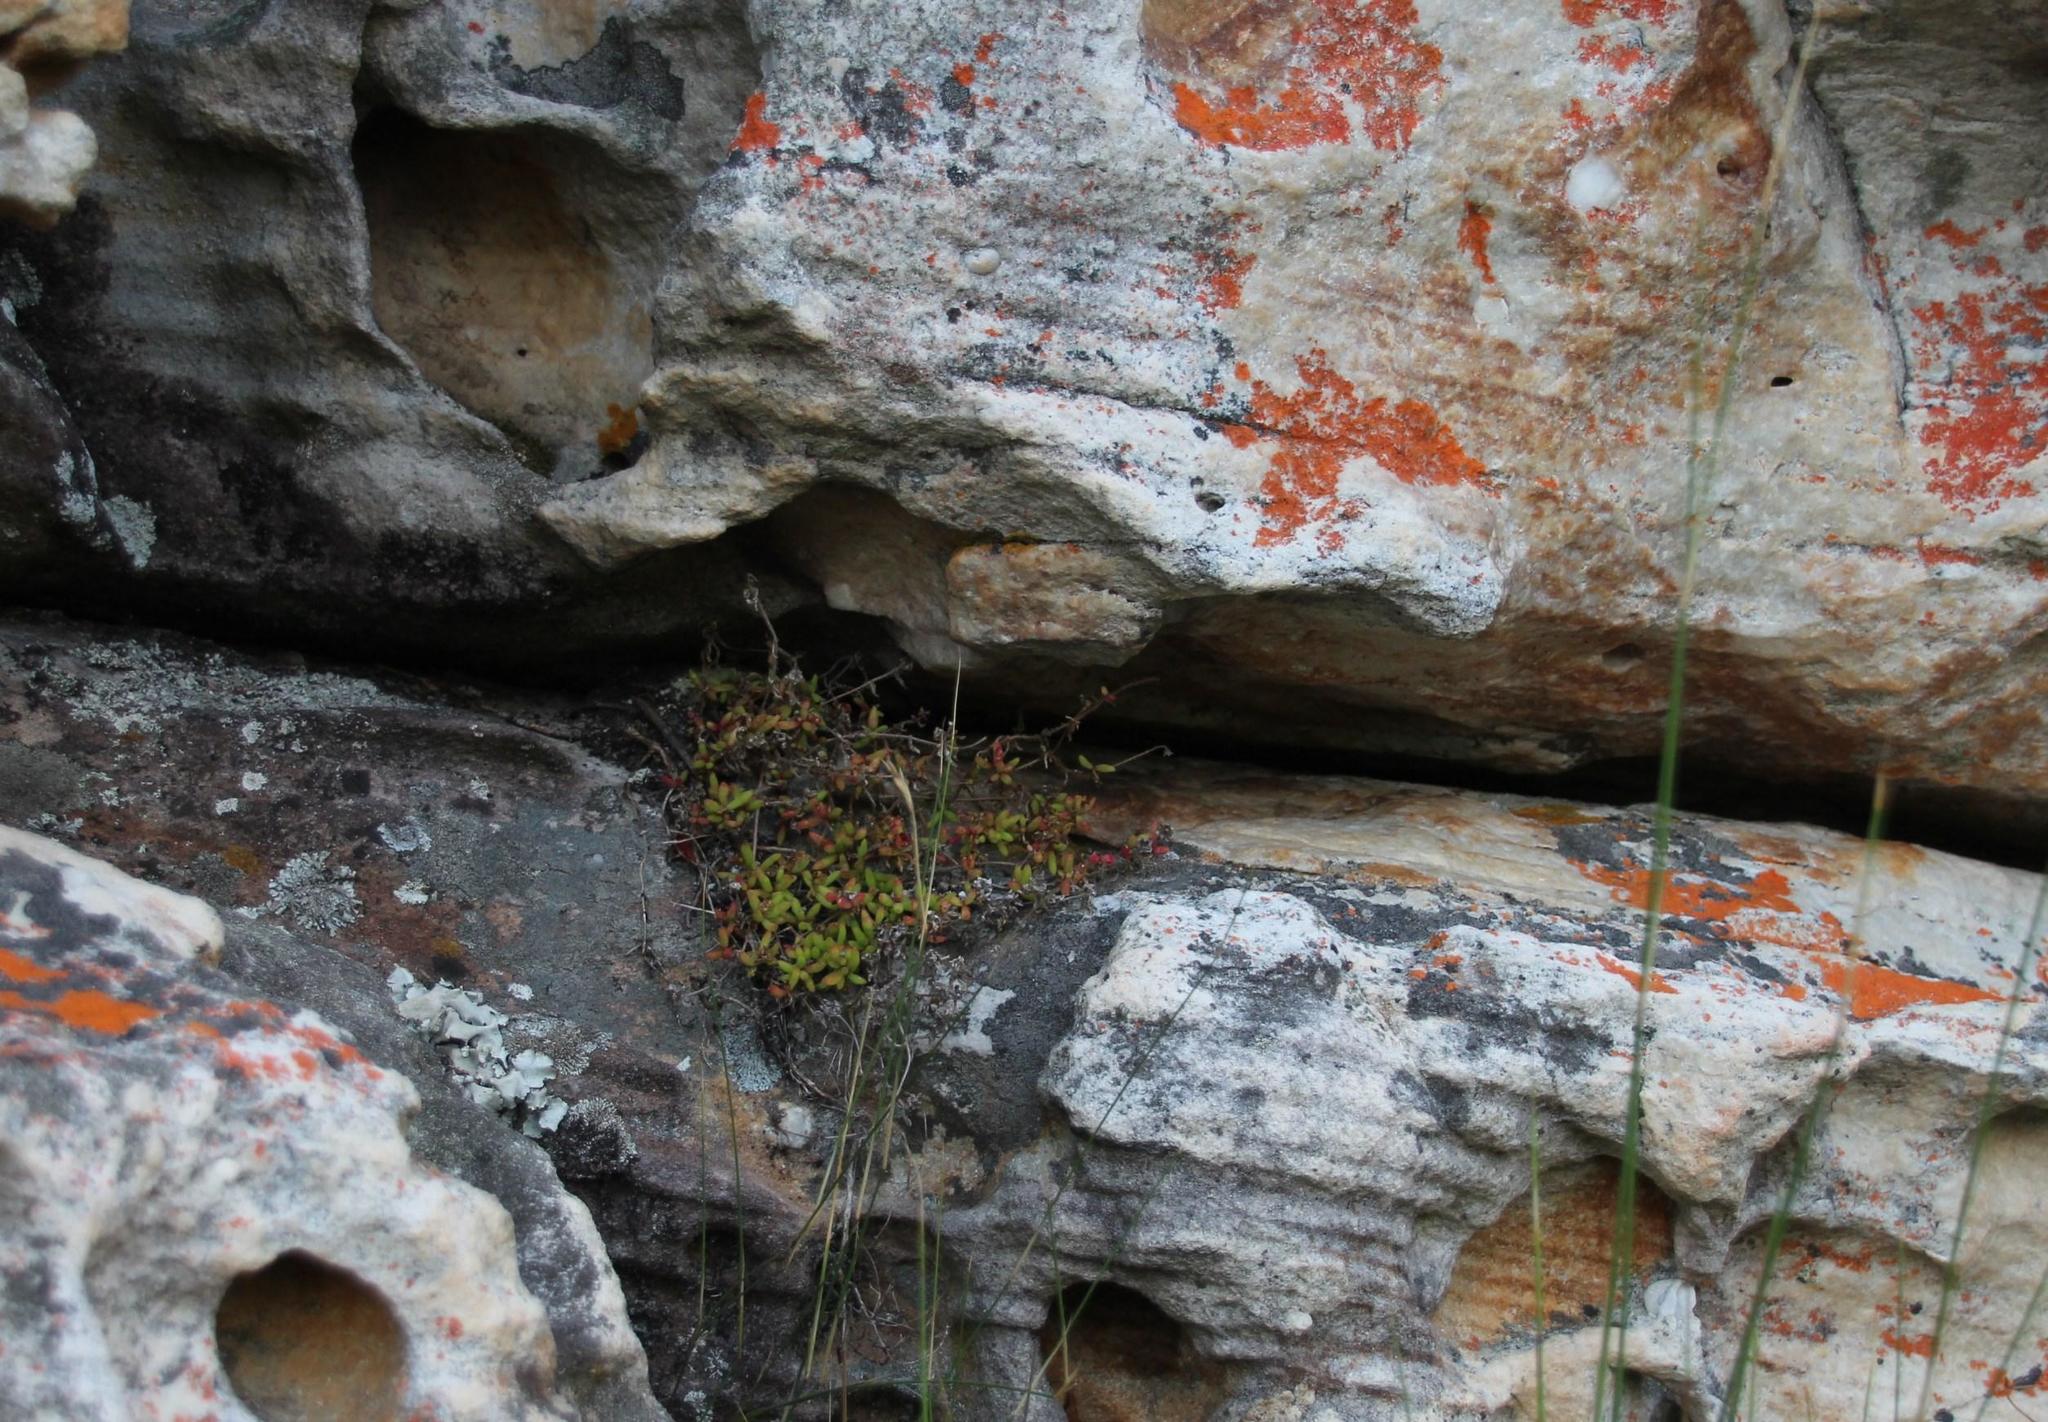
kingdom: Plantae
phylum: Tracheophyta
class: Magnoliopsida
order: Caryophyllales
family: Aizoaceae
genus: Drosanthemum
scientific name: Drosanthemum stokoei
